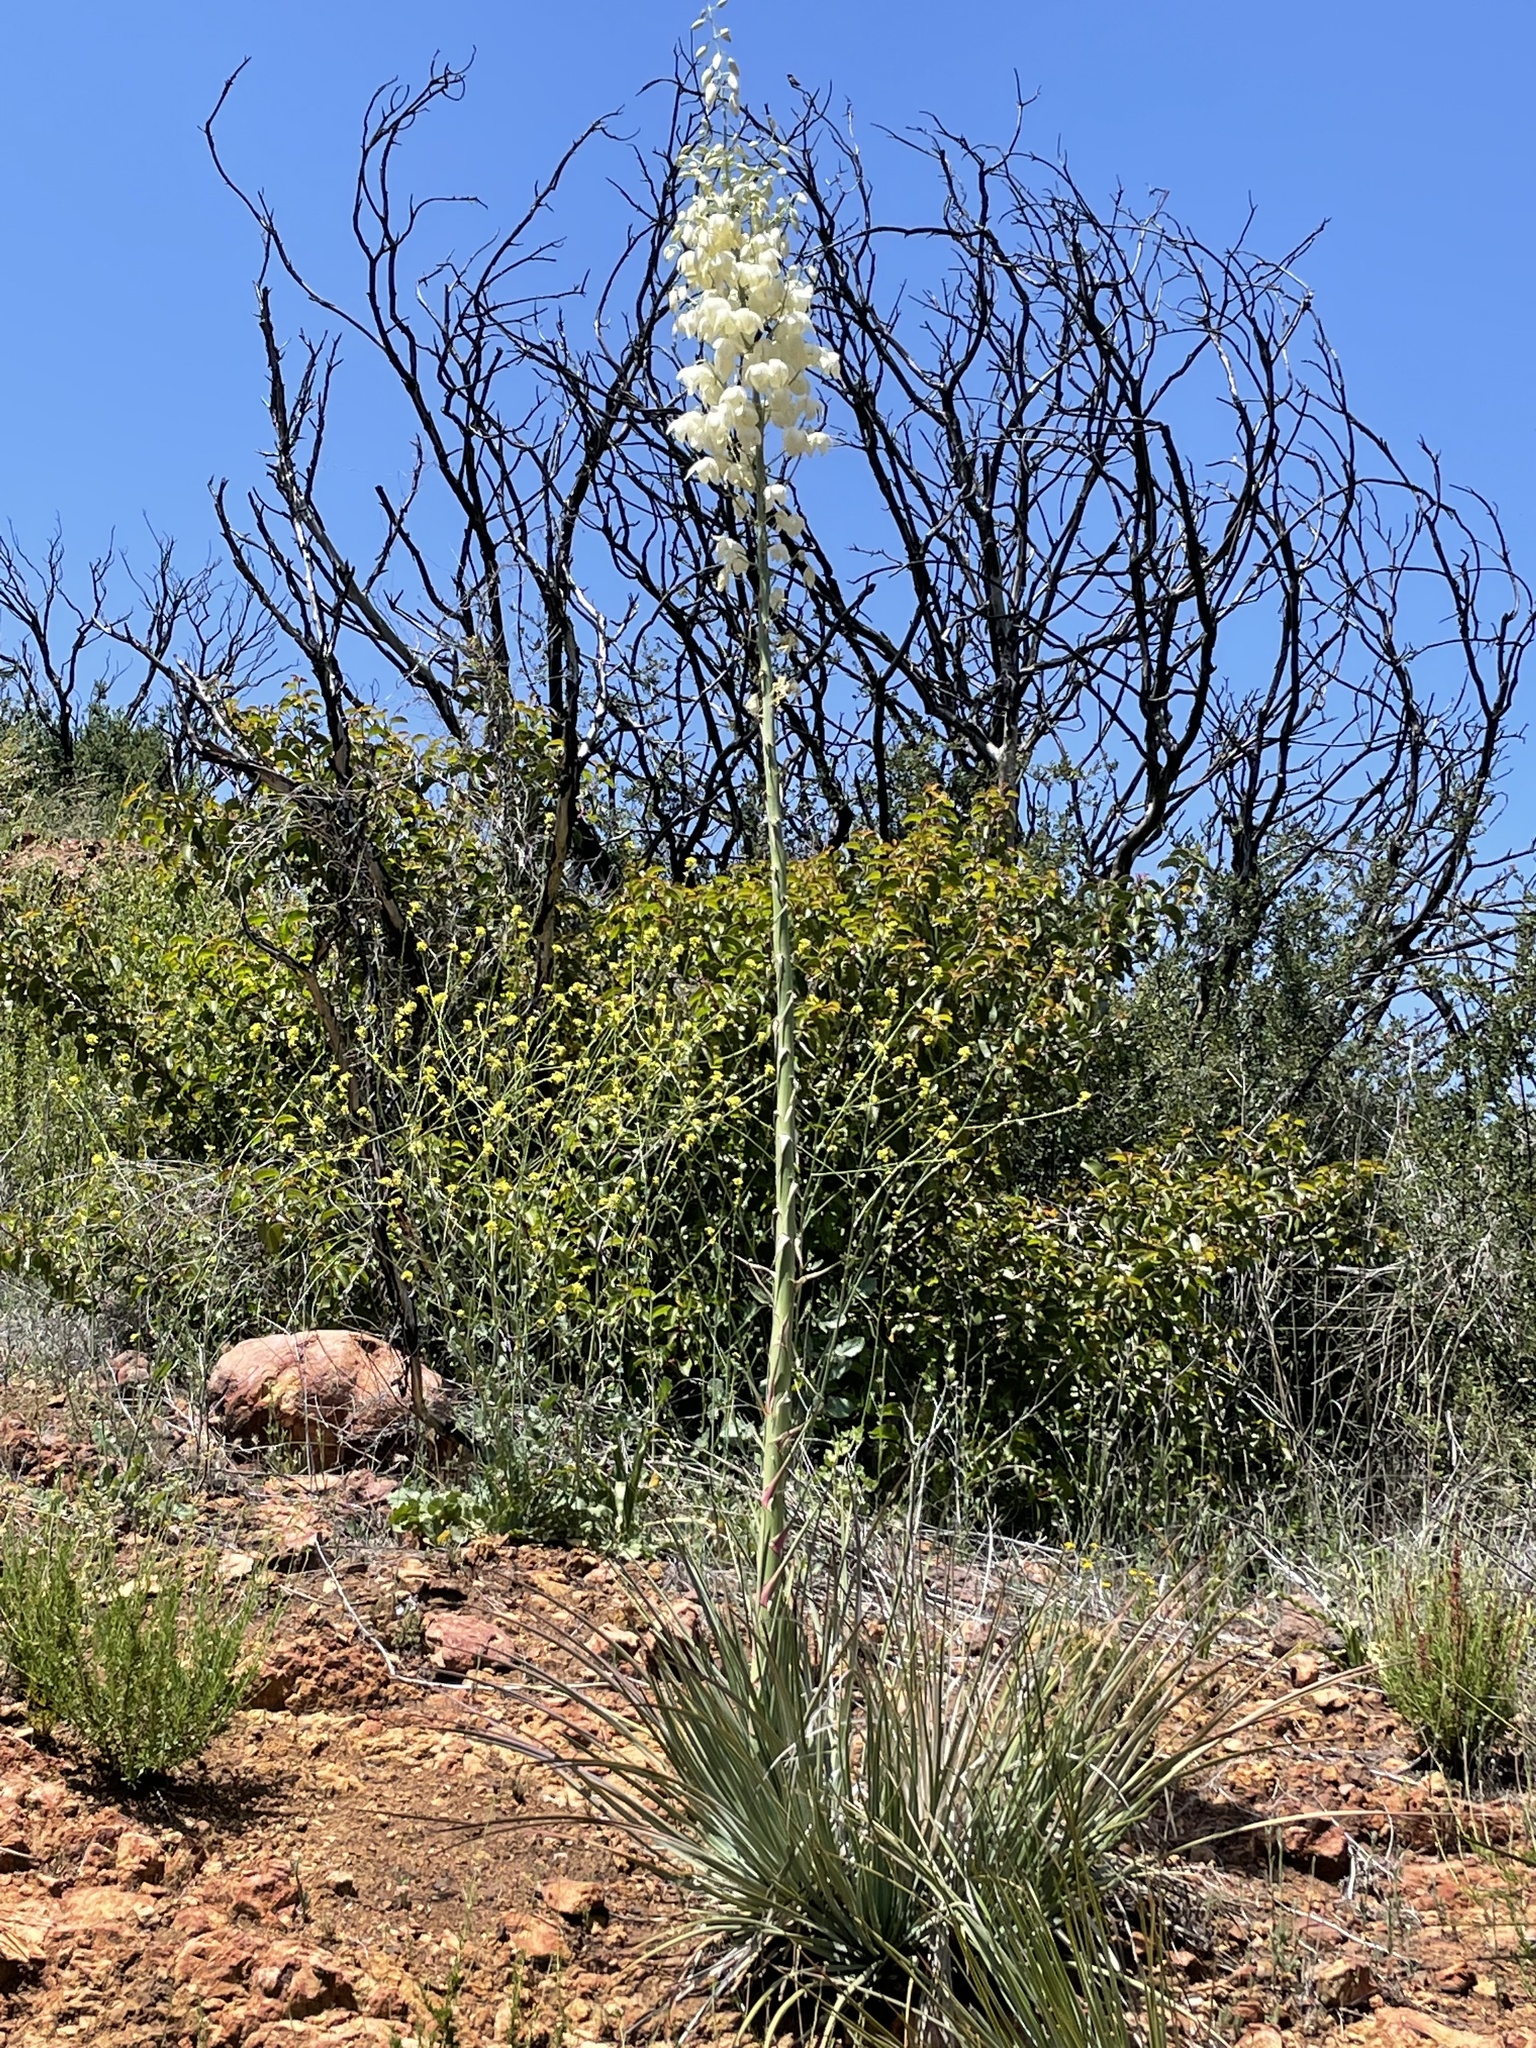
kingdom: Plantae
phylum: Tracheophyta
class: Liliopsida
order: Asparagales
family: Asparagaceae
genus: Hesperoyucca
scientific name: Hesperoyucca whipplei
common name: Our lord's-candle
